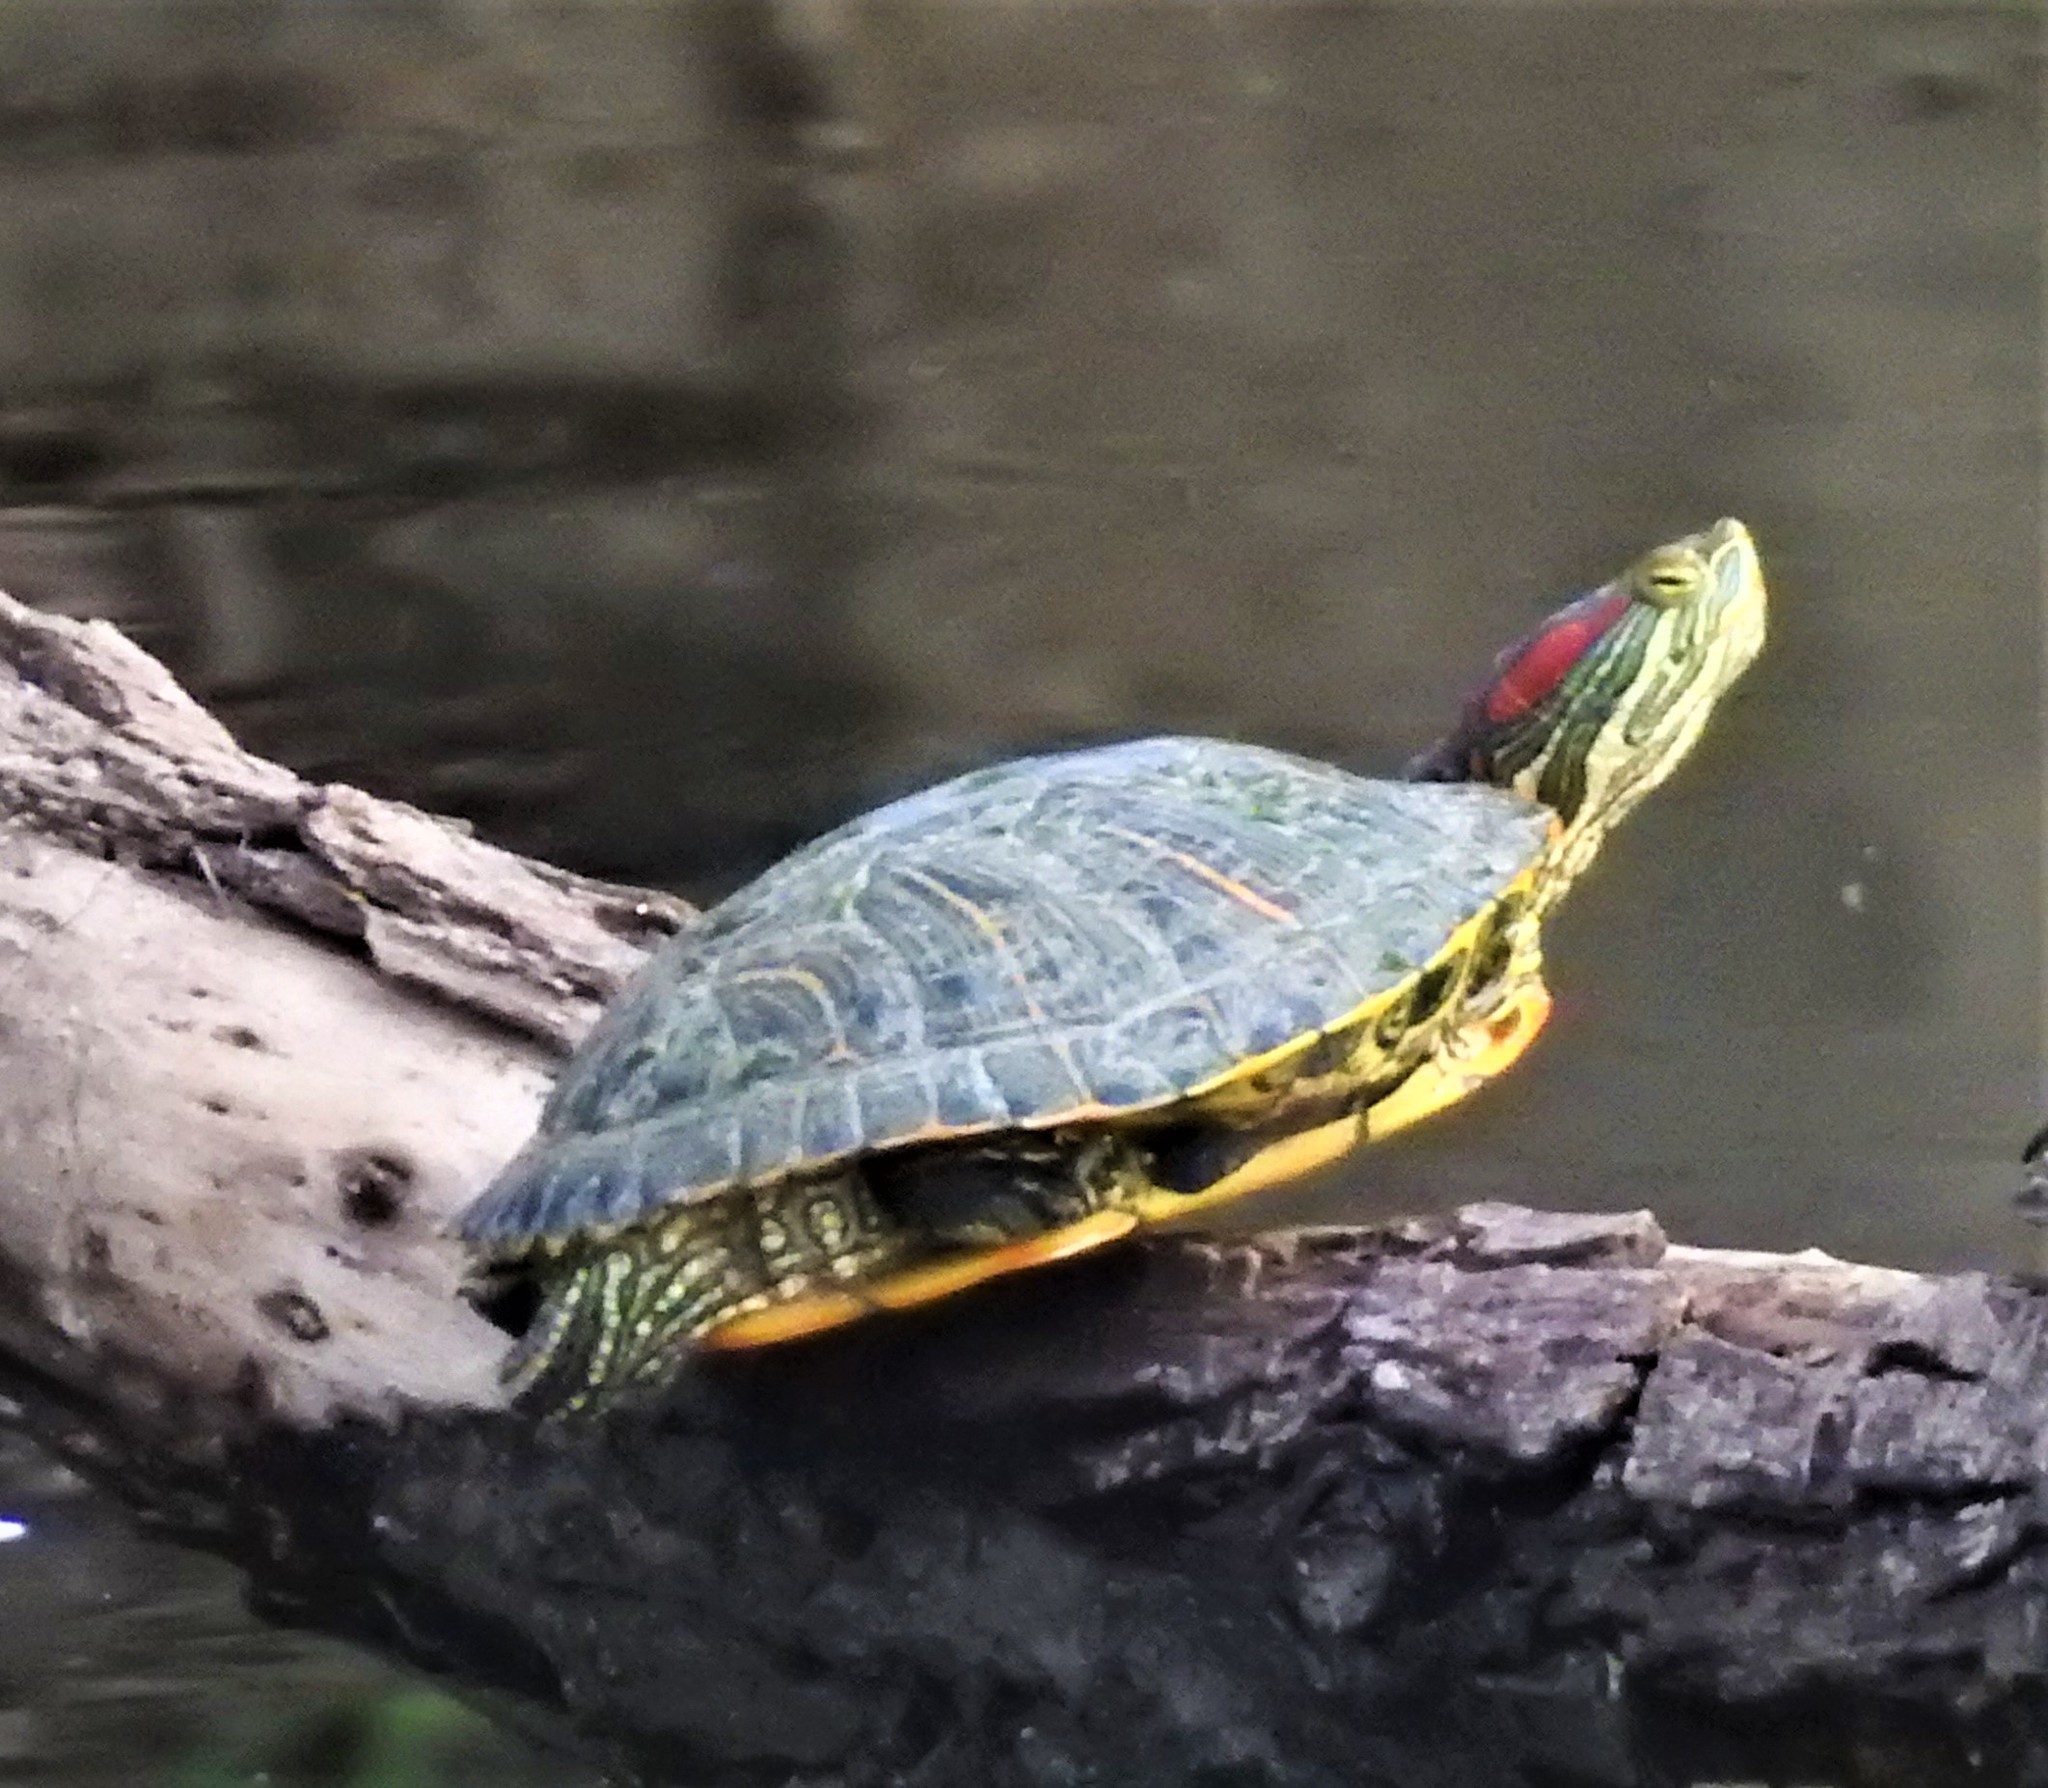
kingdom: Animalia
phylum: Chordata
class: Testudines
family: Emydidae
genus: Trachemys
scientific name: Trachemys scripta
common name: Slider
